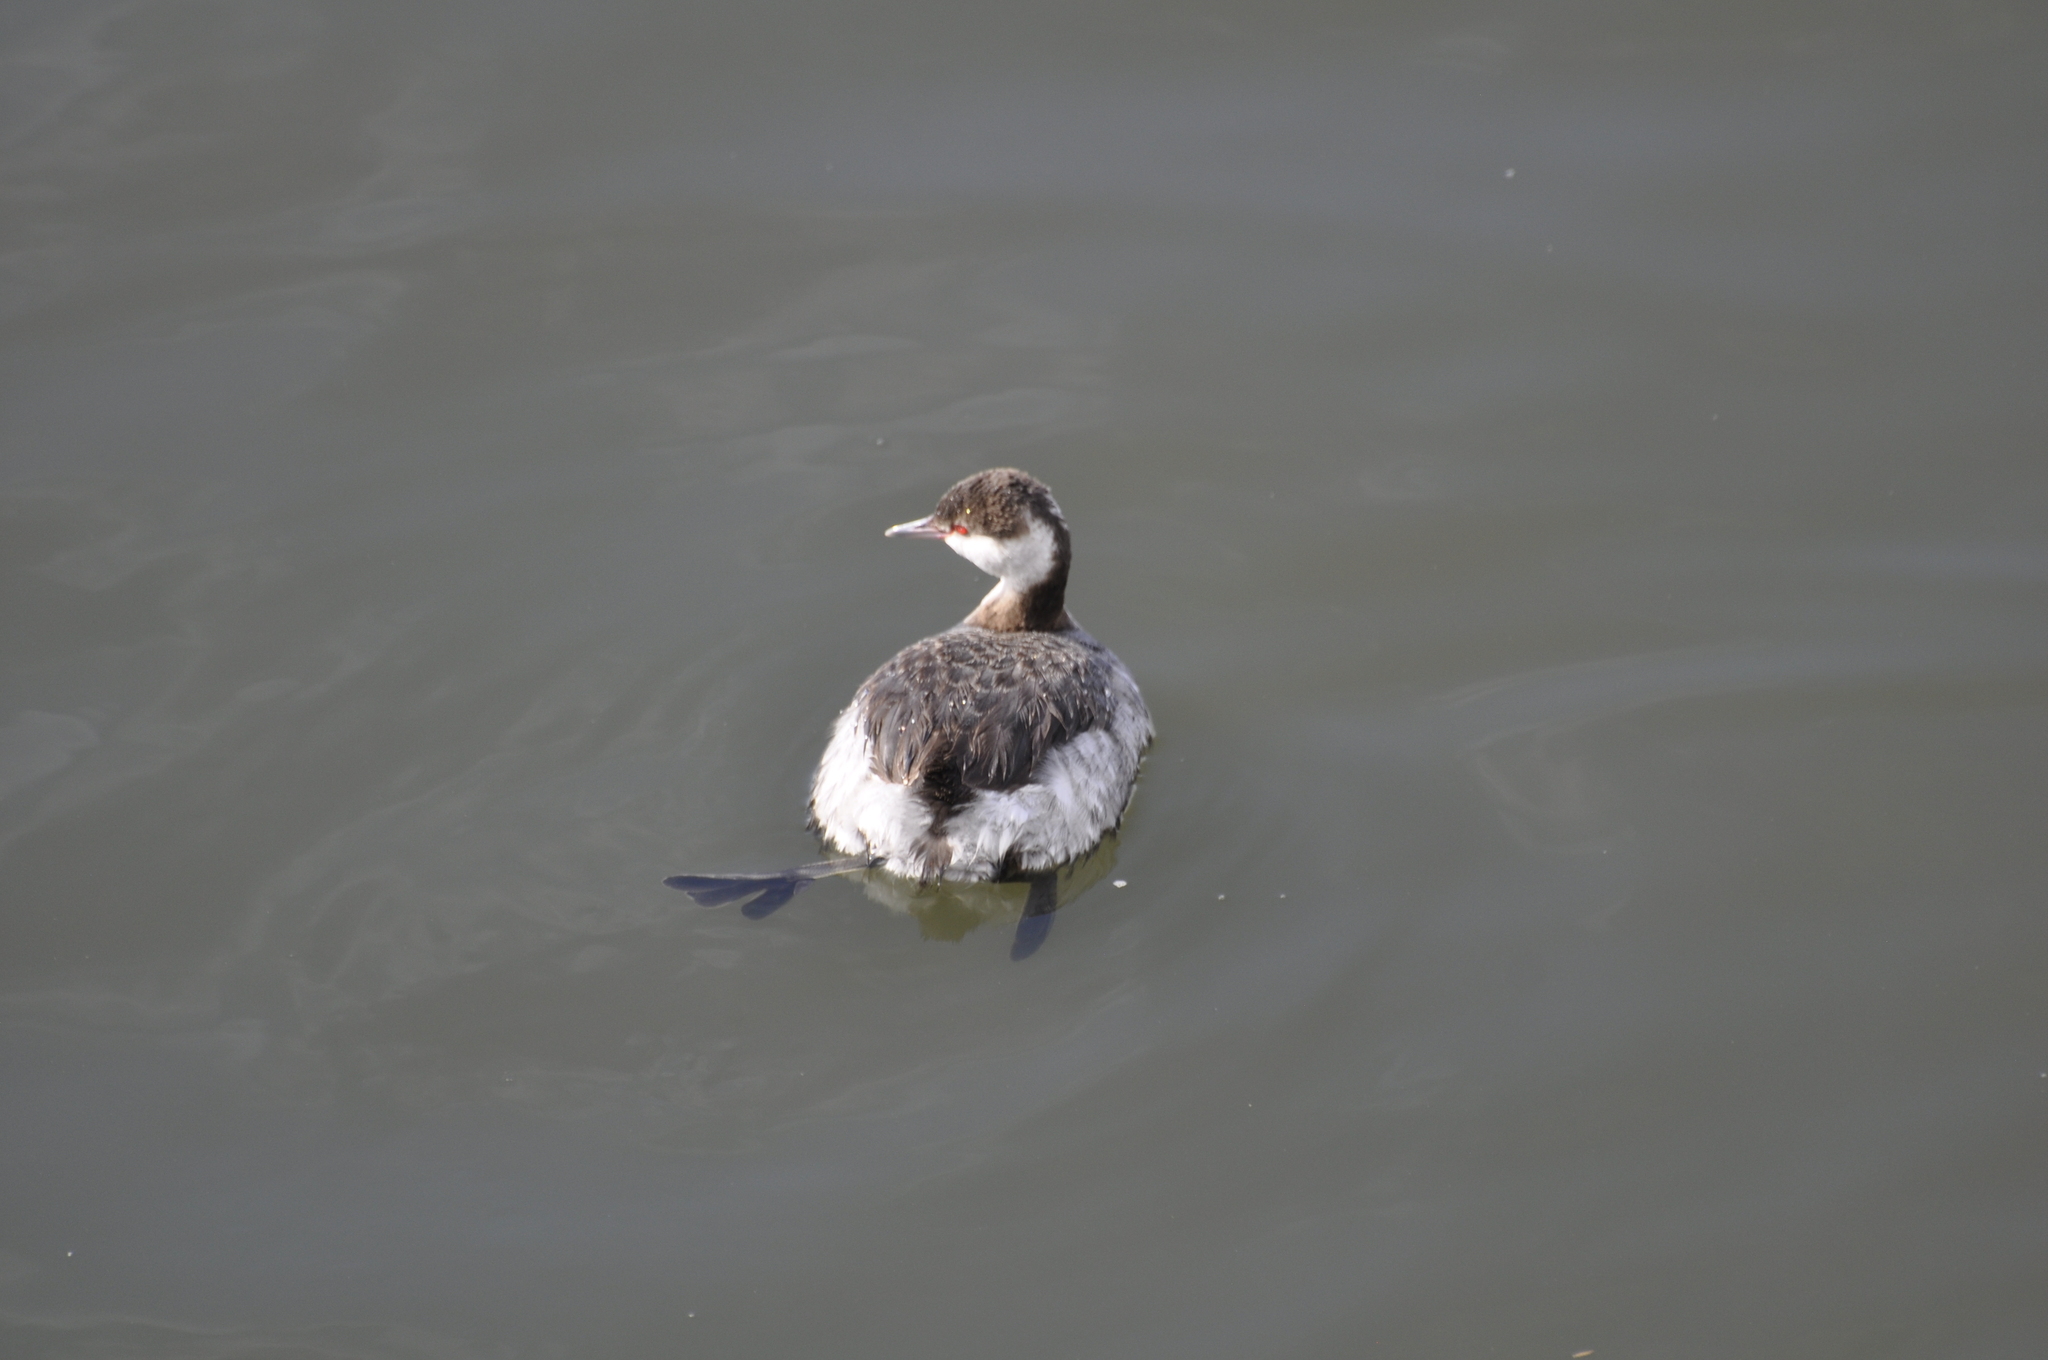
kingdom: Animalia
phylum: Chordata
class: Aves
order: Podicipediformes
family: Podicipedidae
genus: Podiceps
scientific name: Podiceps auritus
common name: Horned grebe
